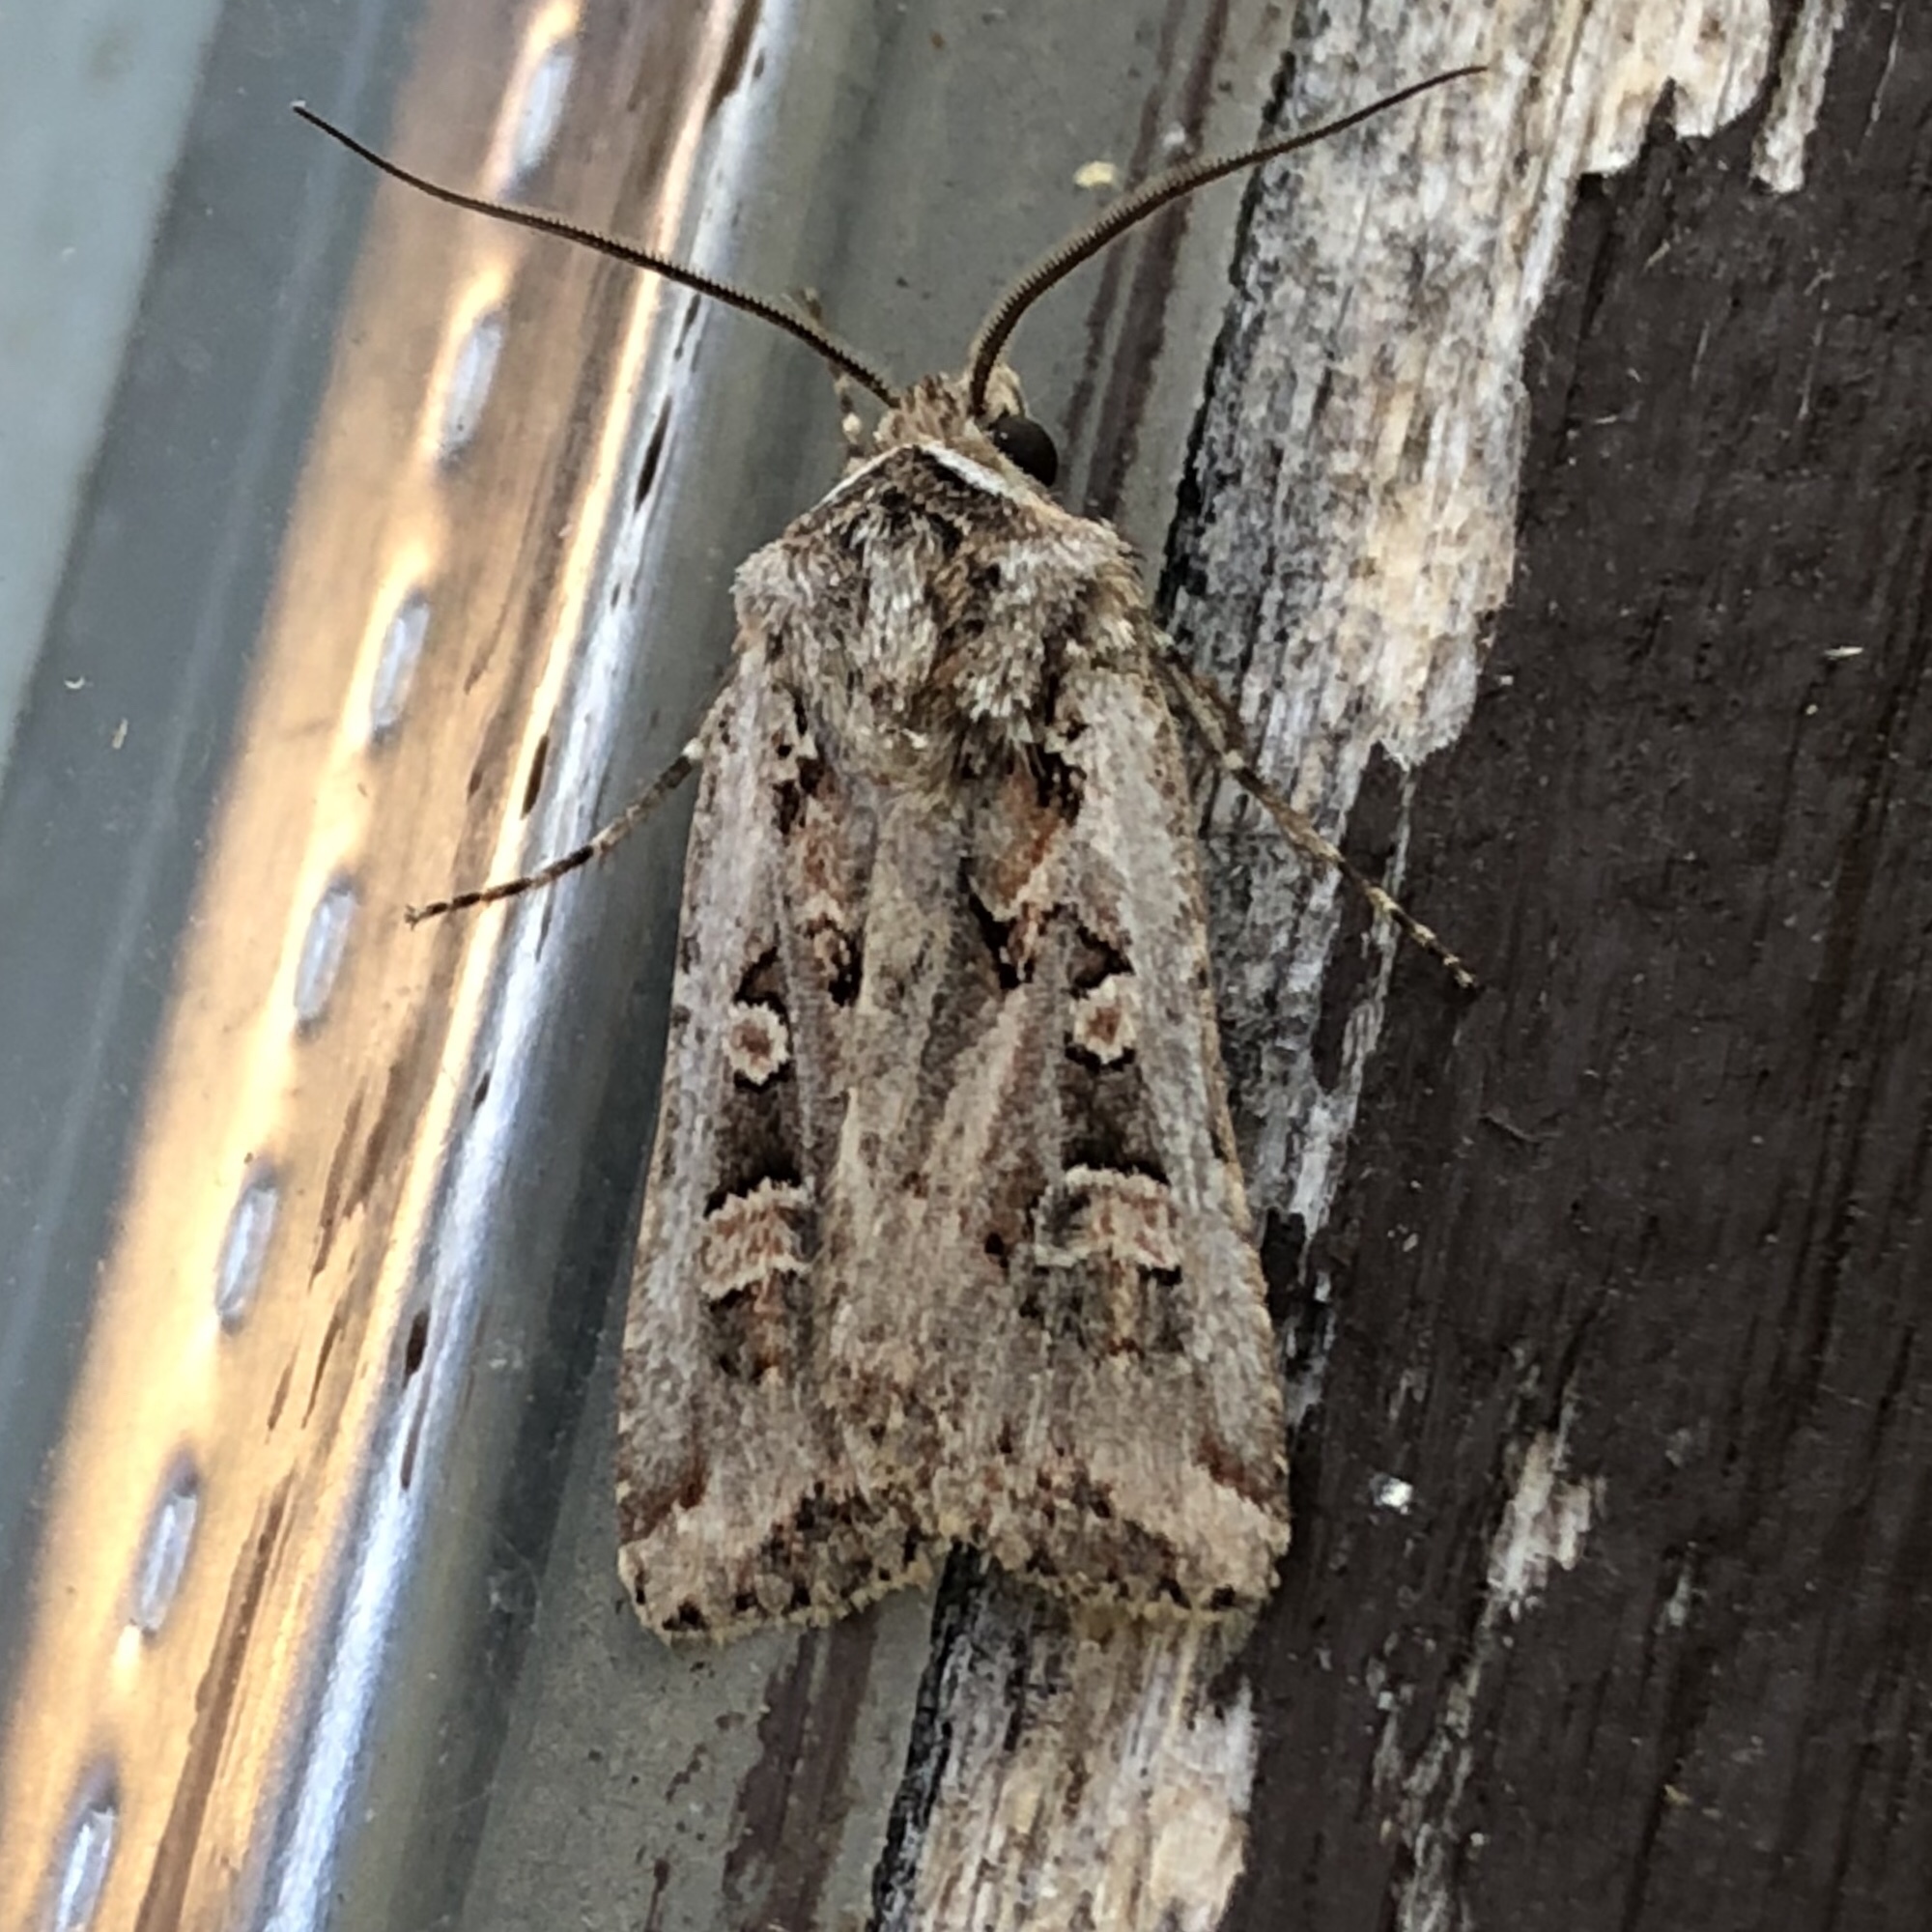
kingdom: Animalia
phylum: Arthropoda
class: Insecta
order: Lepidoptera
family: Noctuidae
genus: Euxoa
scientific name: Euxoa detersa
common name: Rubbed dart
